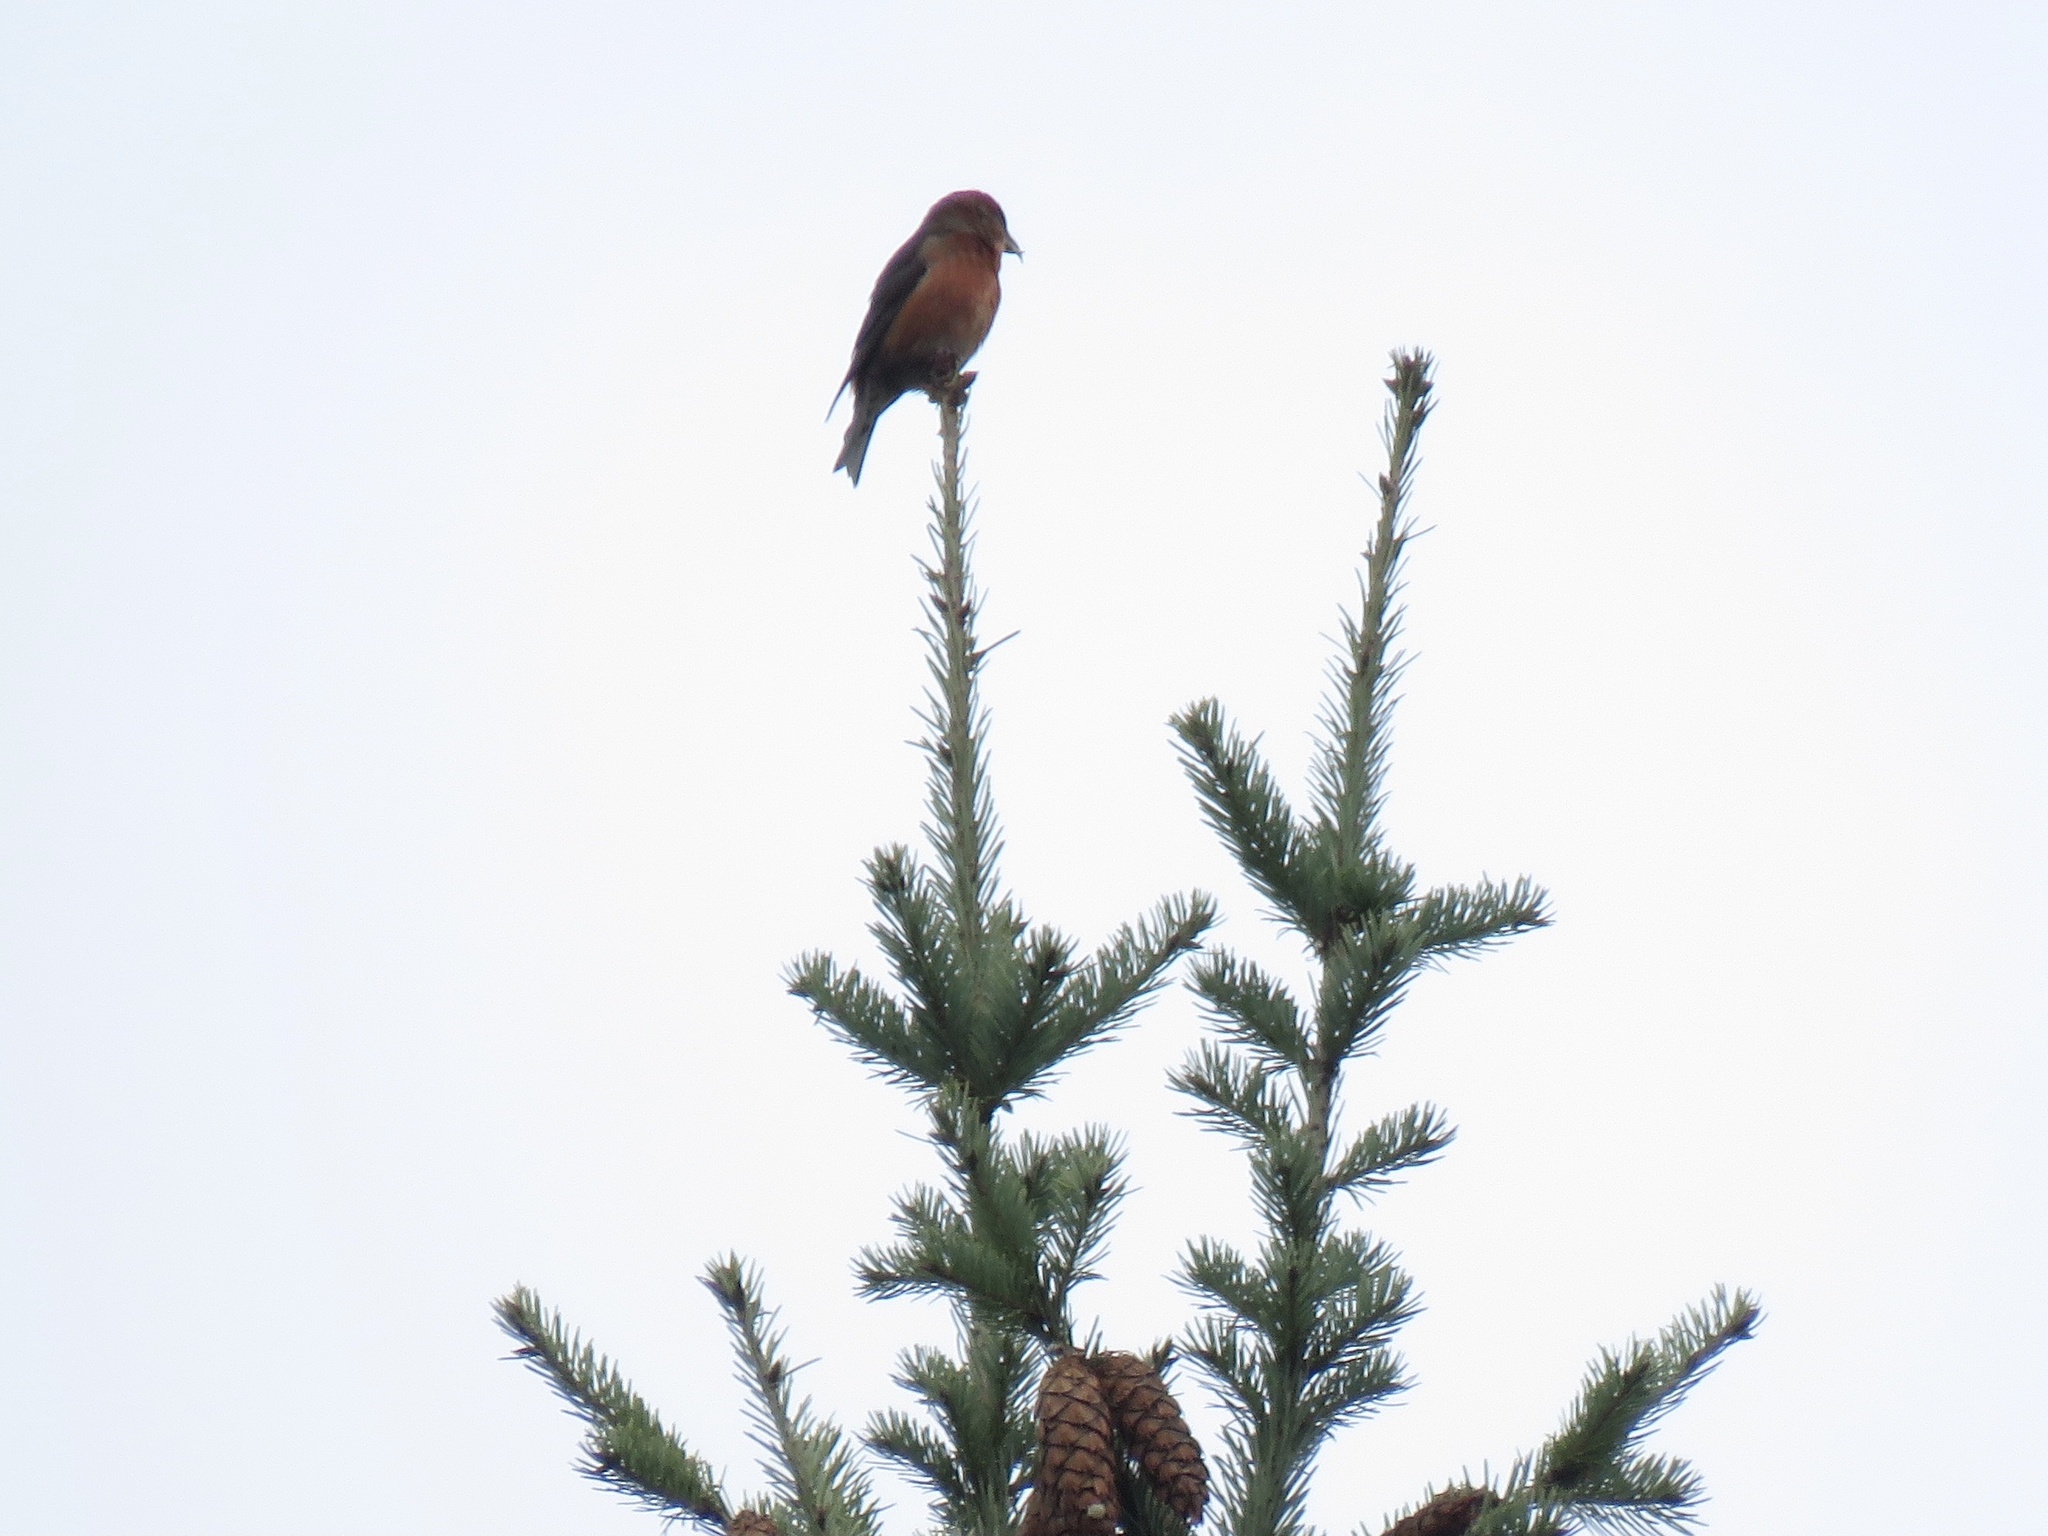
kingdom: Animalia
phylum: Chordata
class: Aves
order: Passeriformes
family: Fringillidae
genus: Loxia
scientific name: Loxia curvirostra
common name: Red crossbill
